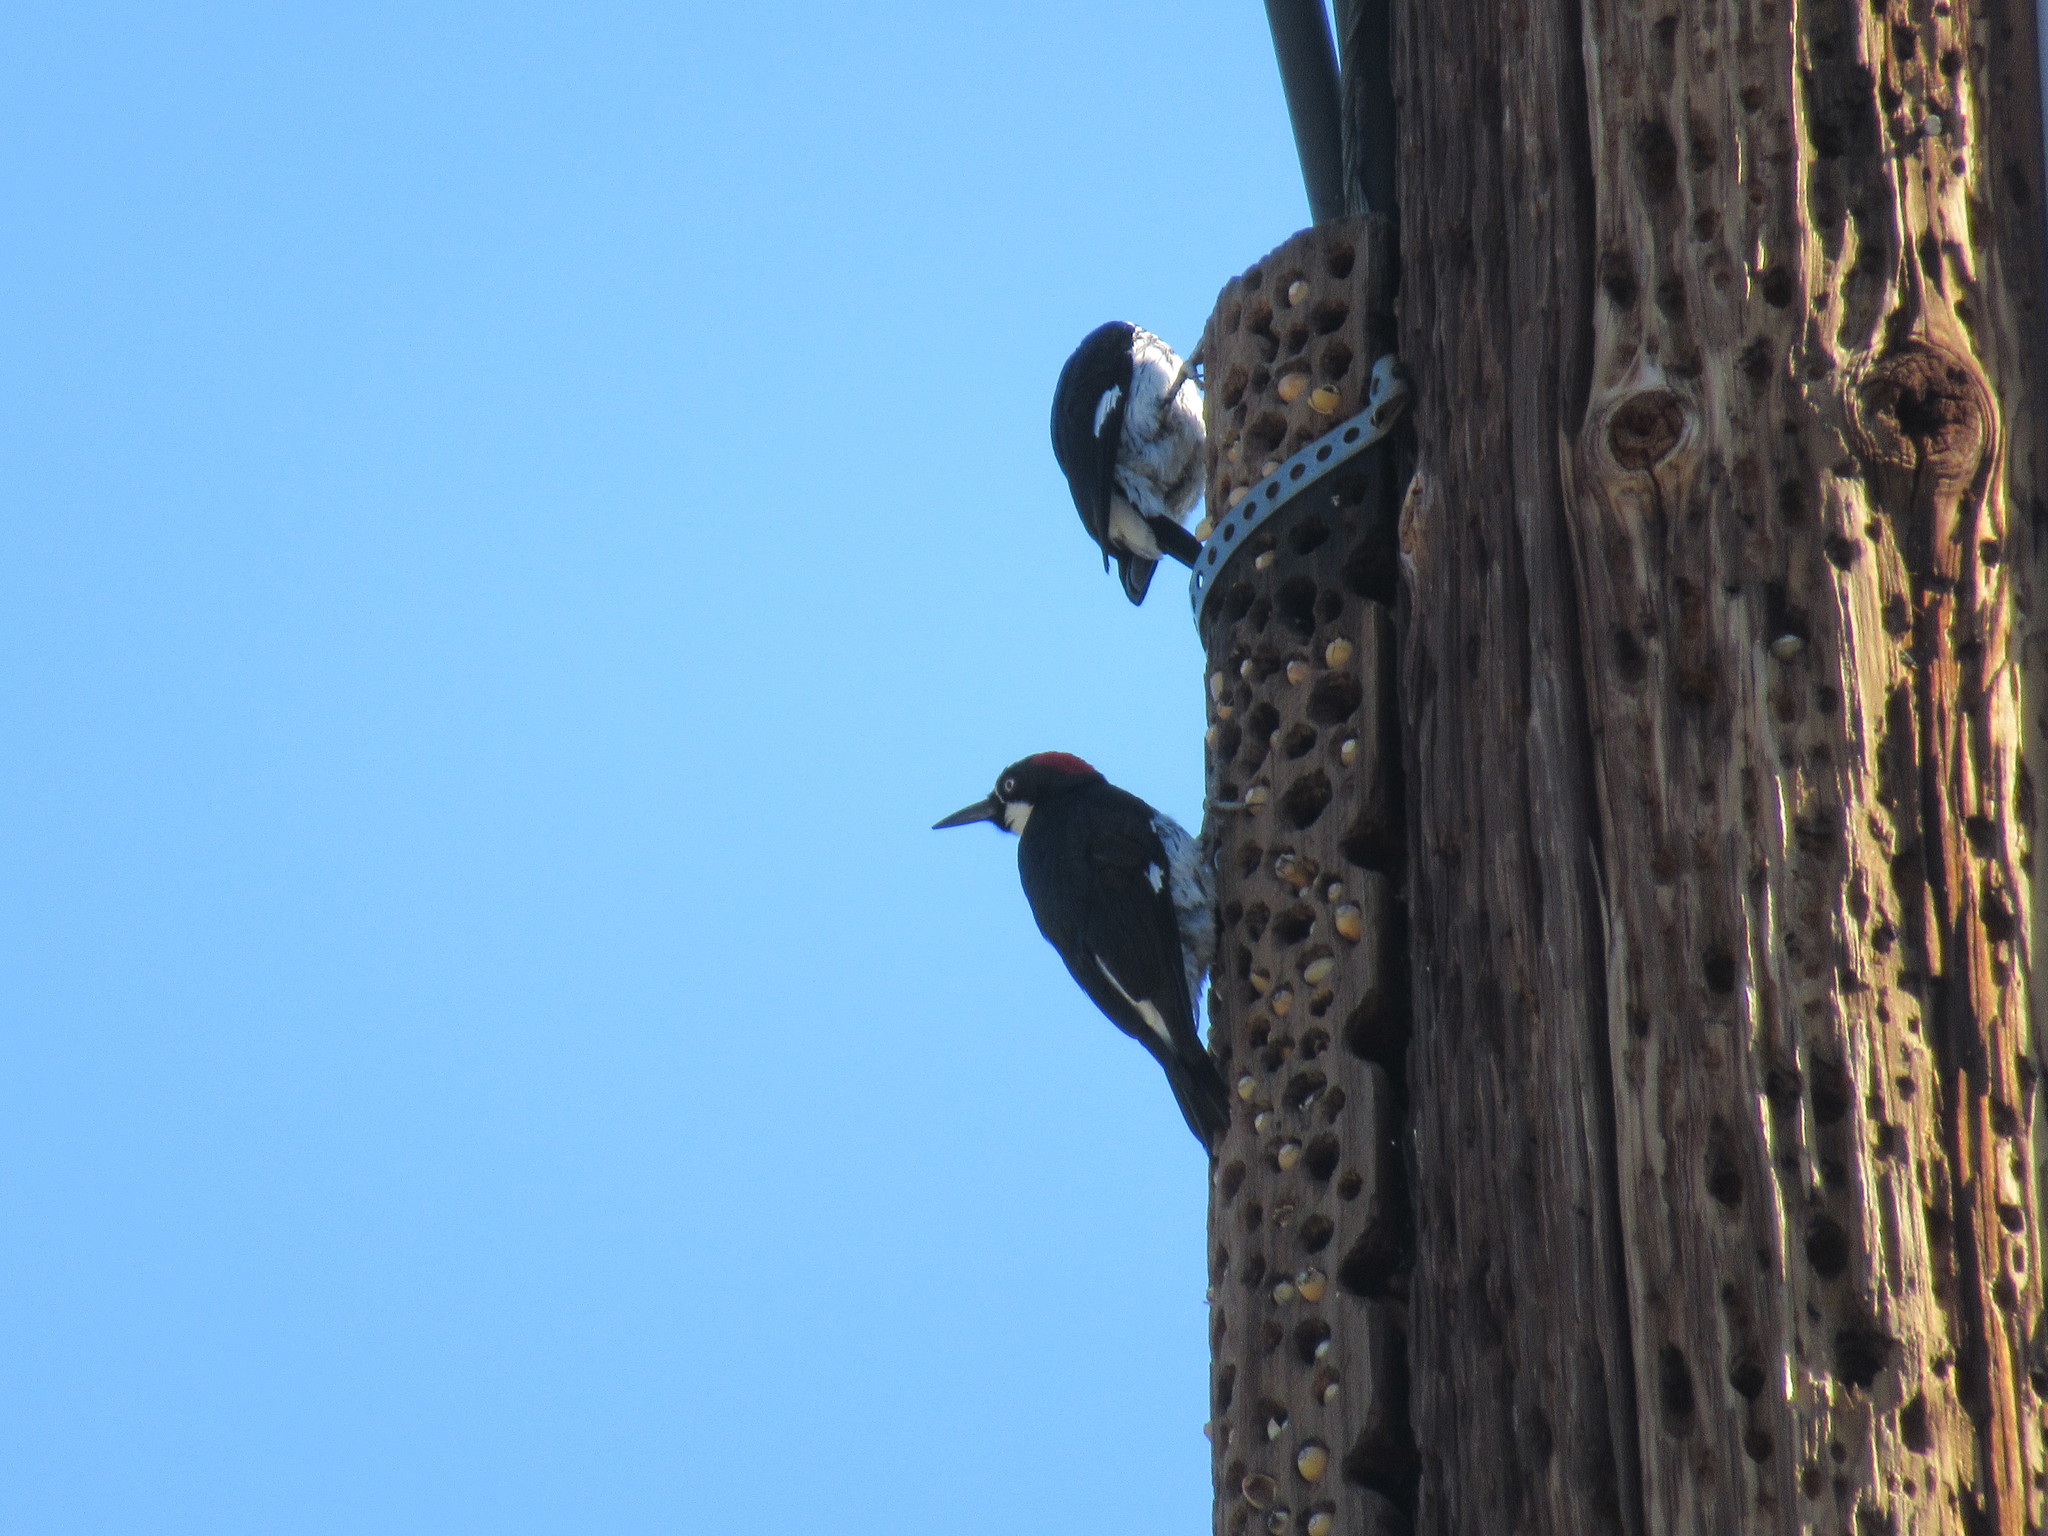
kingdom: Animalia
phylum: Chordata
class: Aves
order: Piciformes
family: Picidae
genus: Melanerpes
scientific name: Melanerpes formicivorus
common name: Acorn woodpecker
